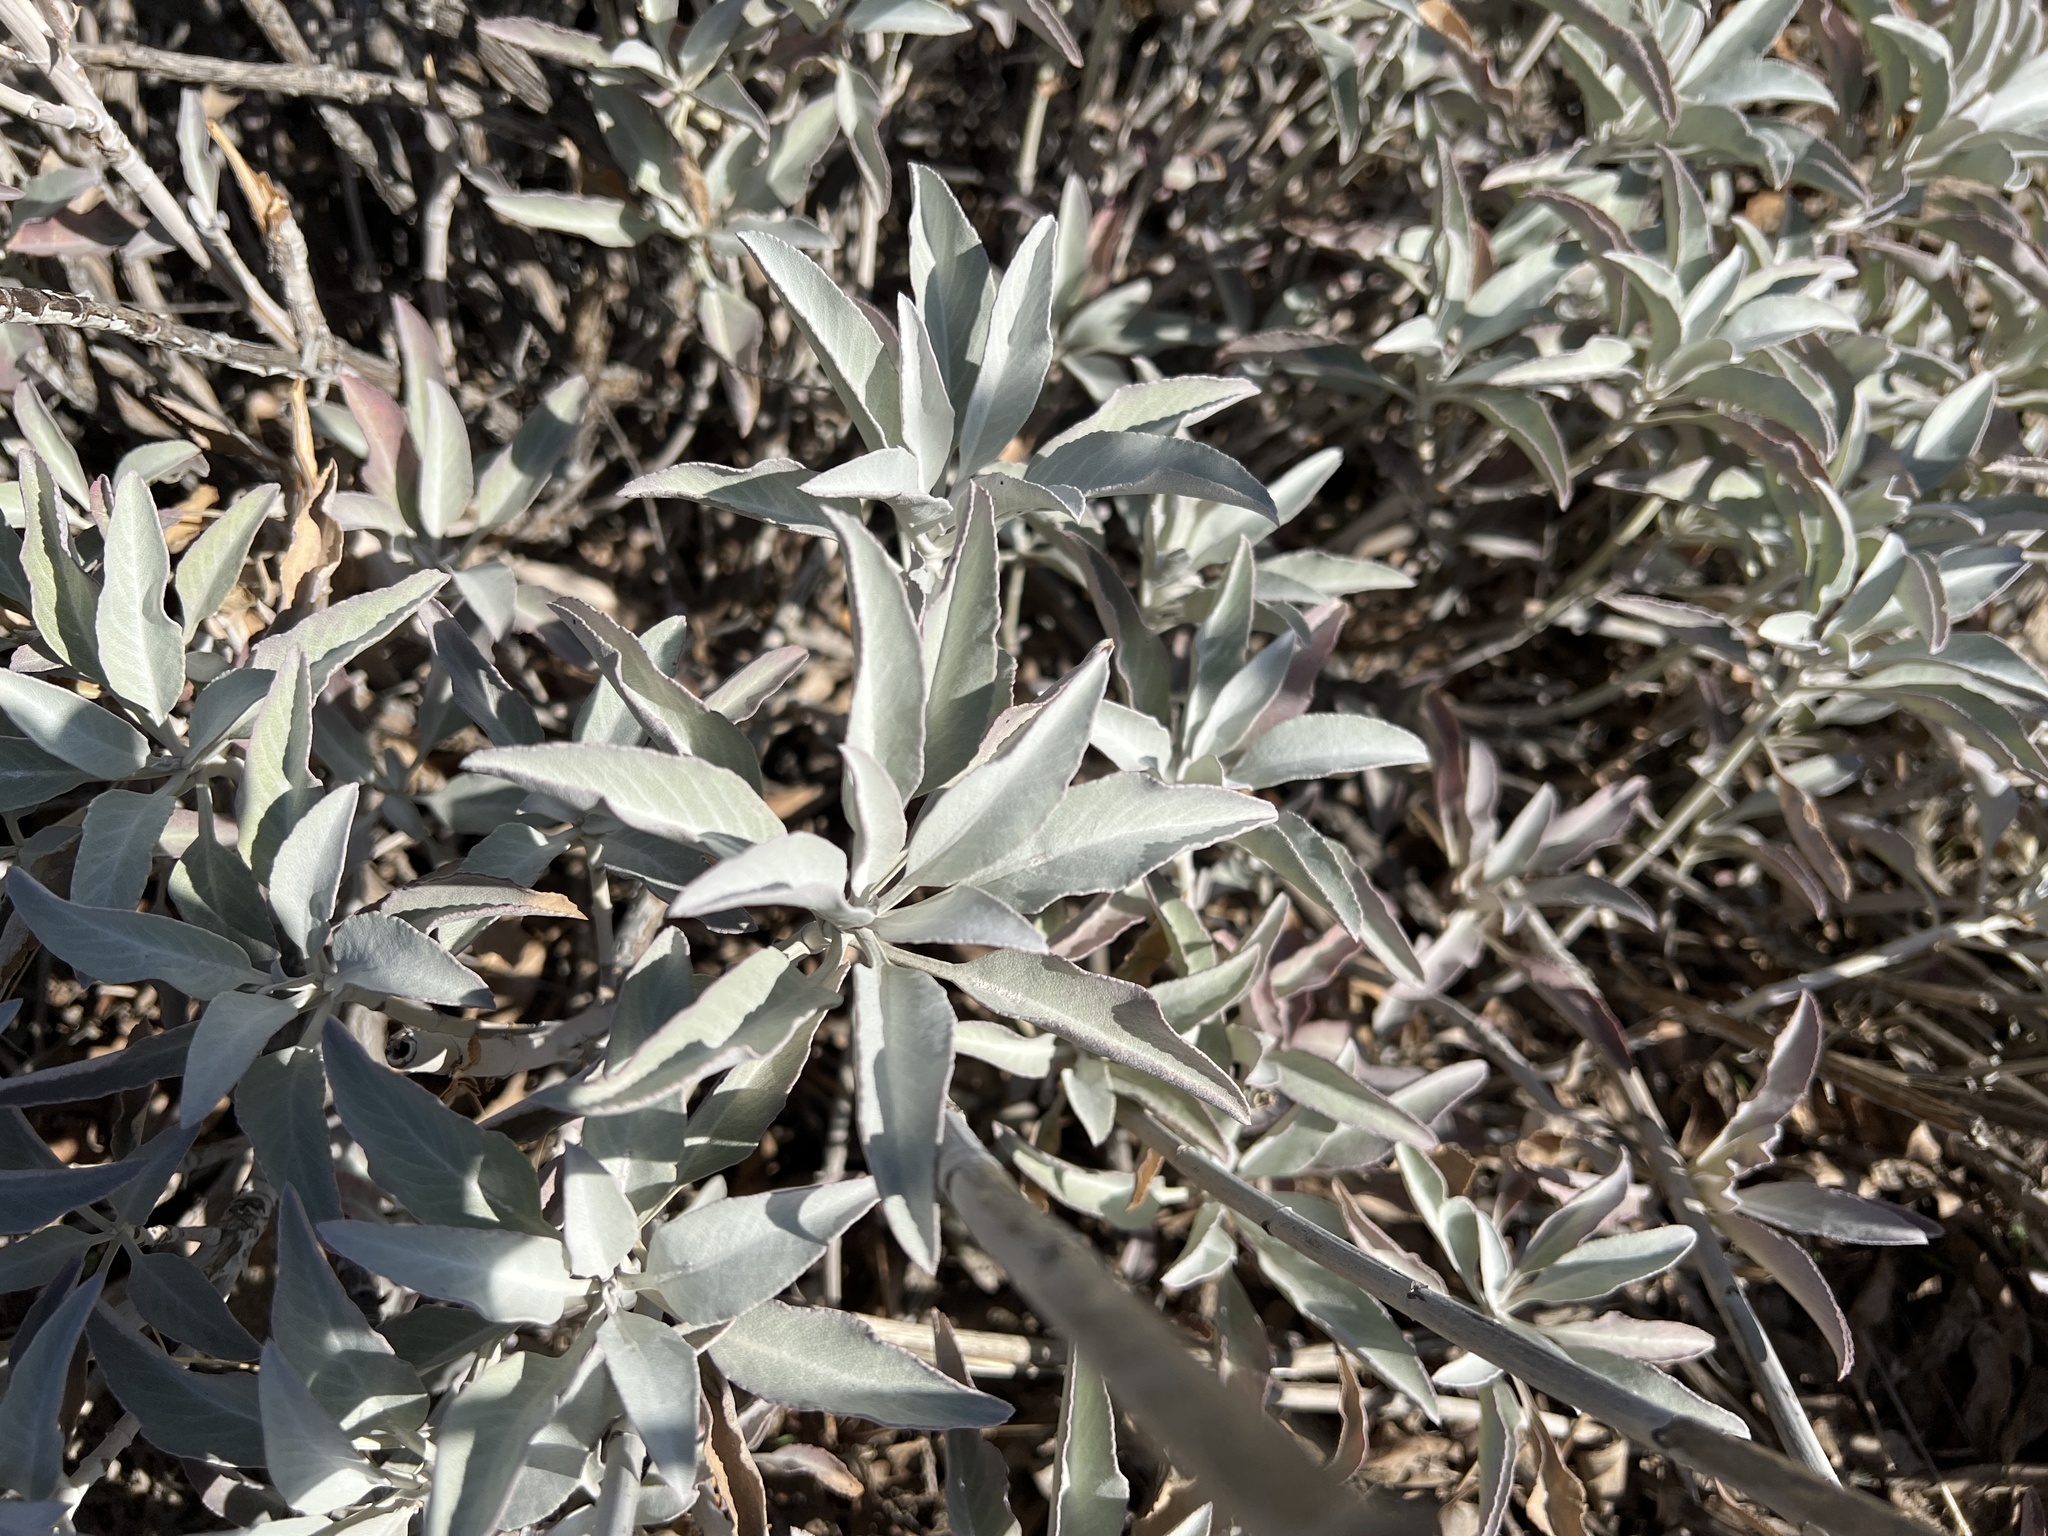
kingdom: Plantae
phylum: Tracheophyta
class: Magnoliopsida
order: Lamiales
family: Lamiaceae
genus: Salvia
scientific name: Salvia apiana
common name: White sage
